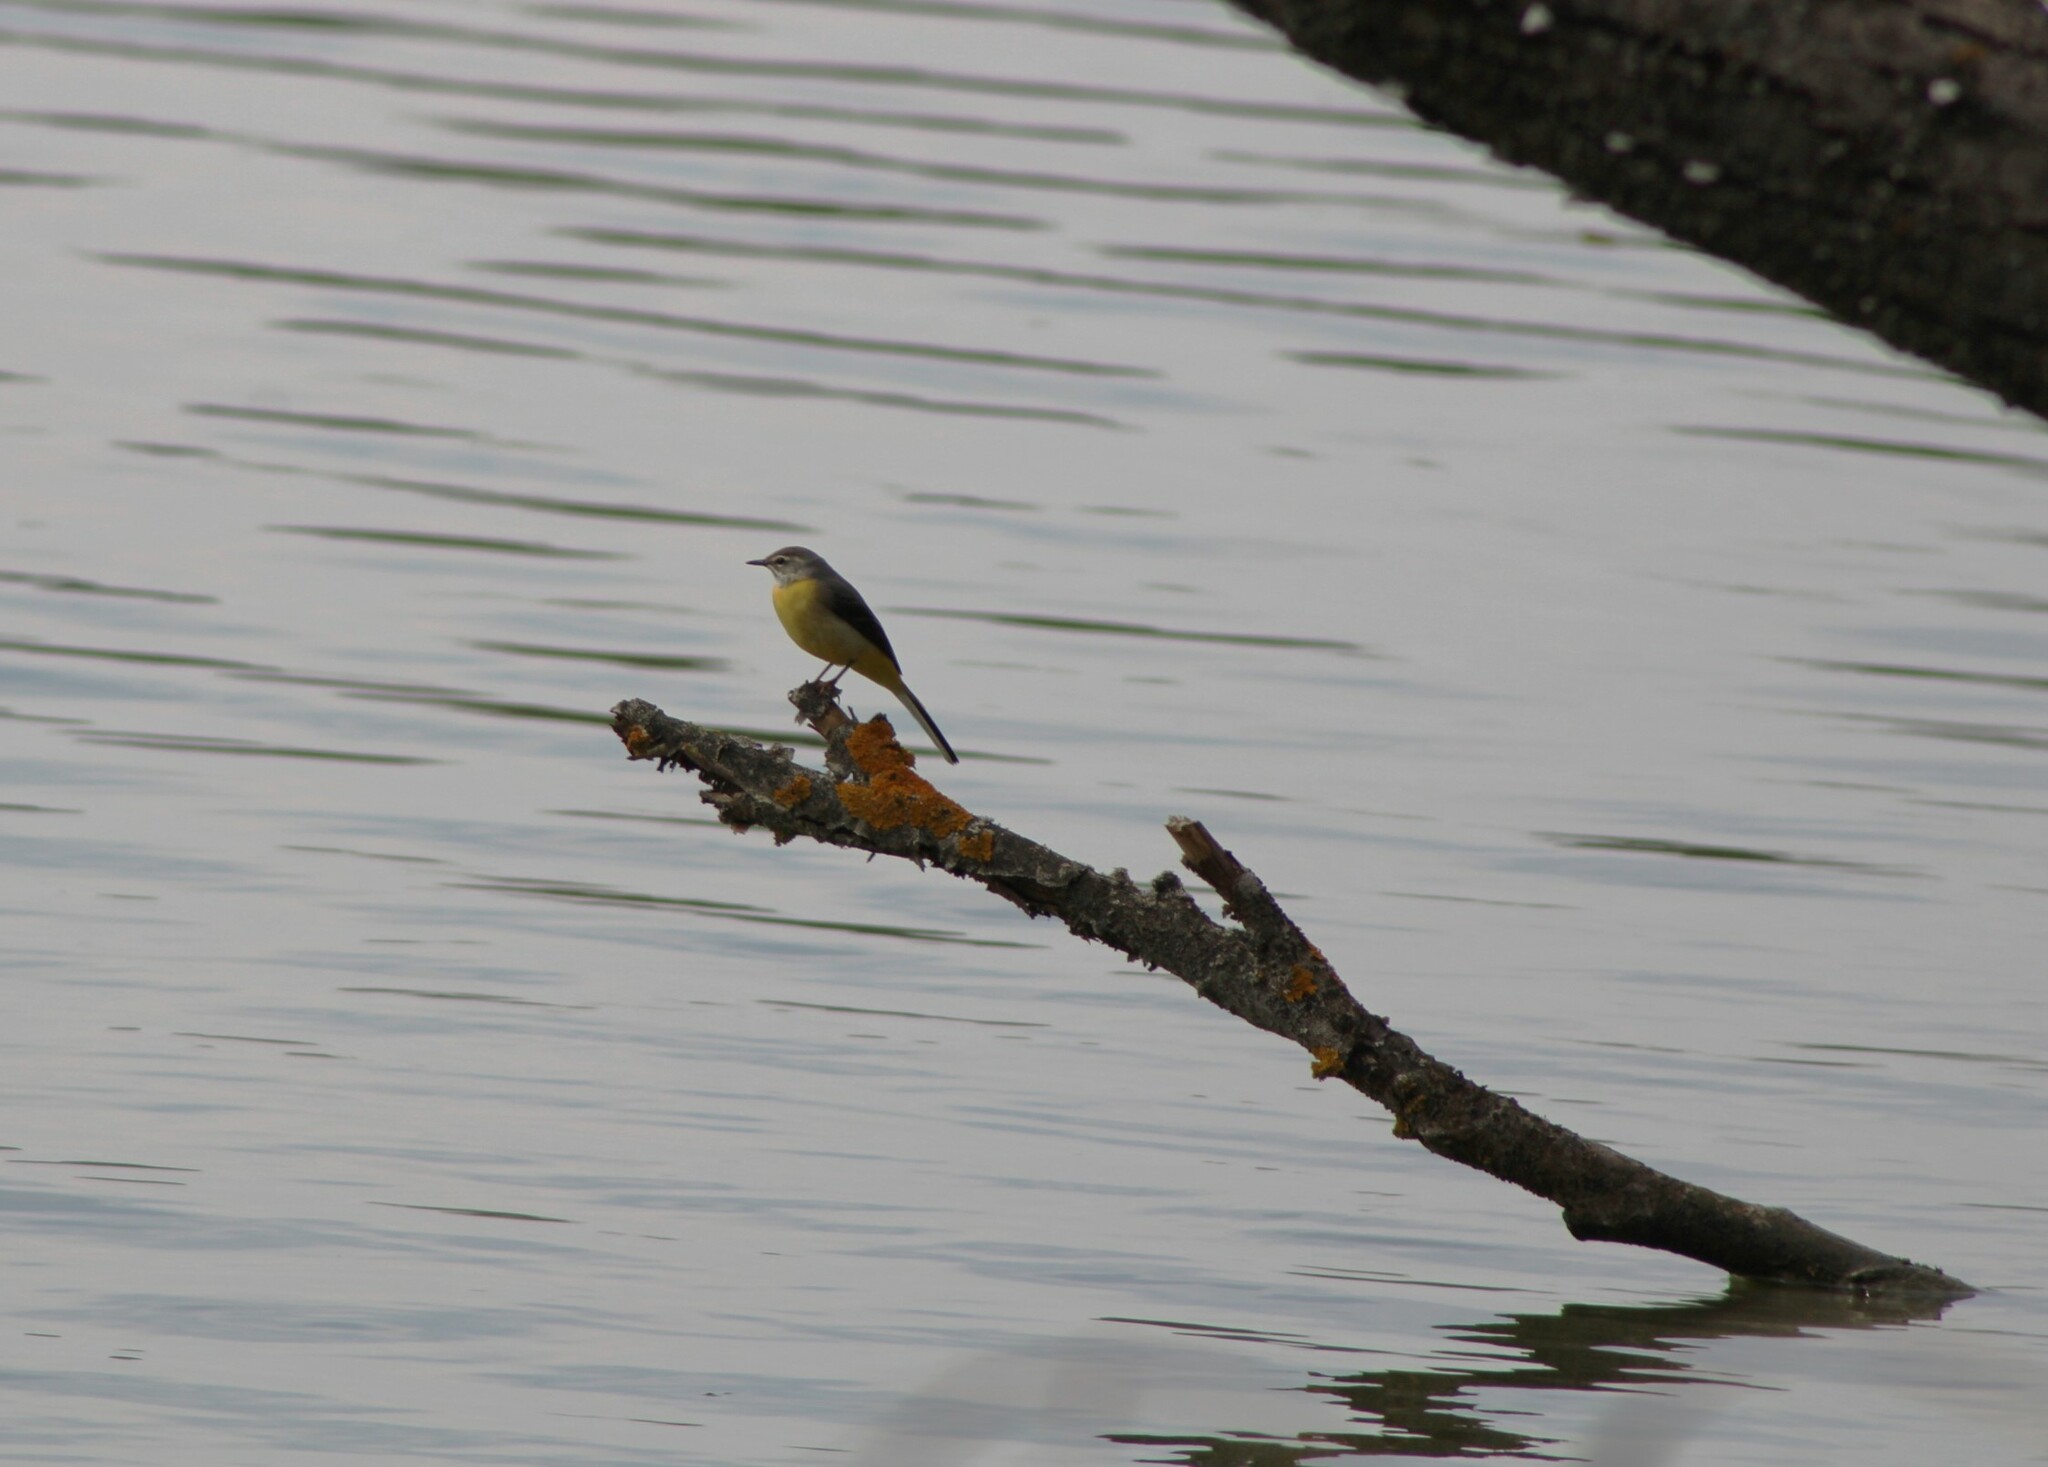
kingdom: Animalia
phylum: Chordata
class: Aves
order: Passeriformes
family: Motacillidae
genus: Motacilla
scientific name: Motacilla cinerea
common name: Grey wagtail
